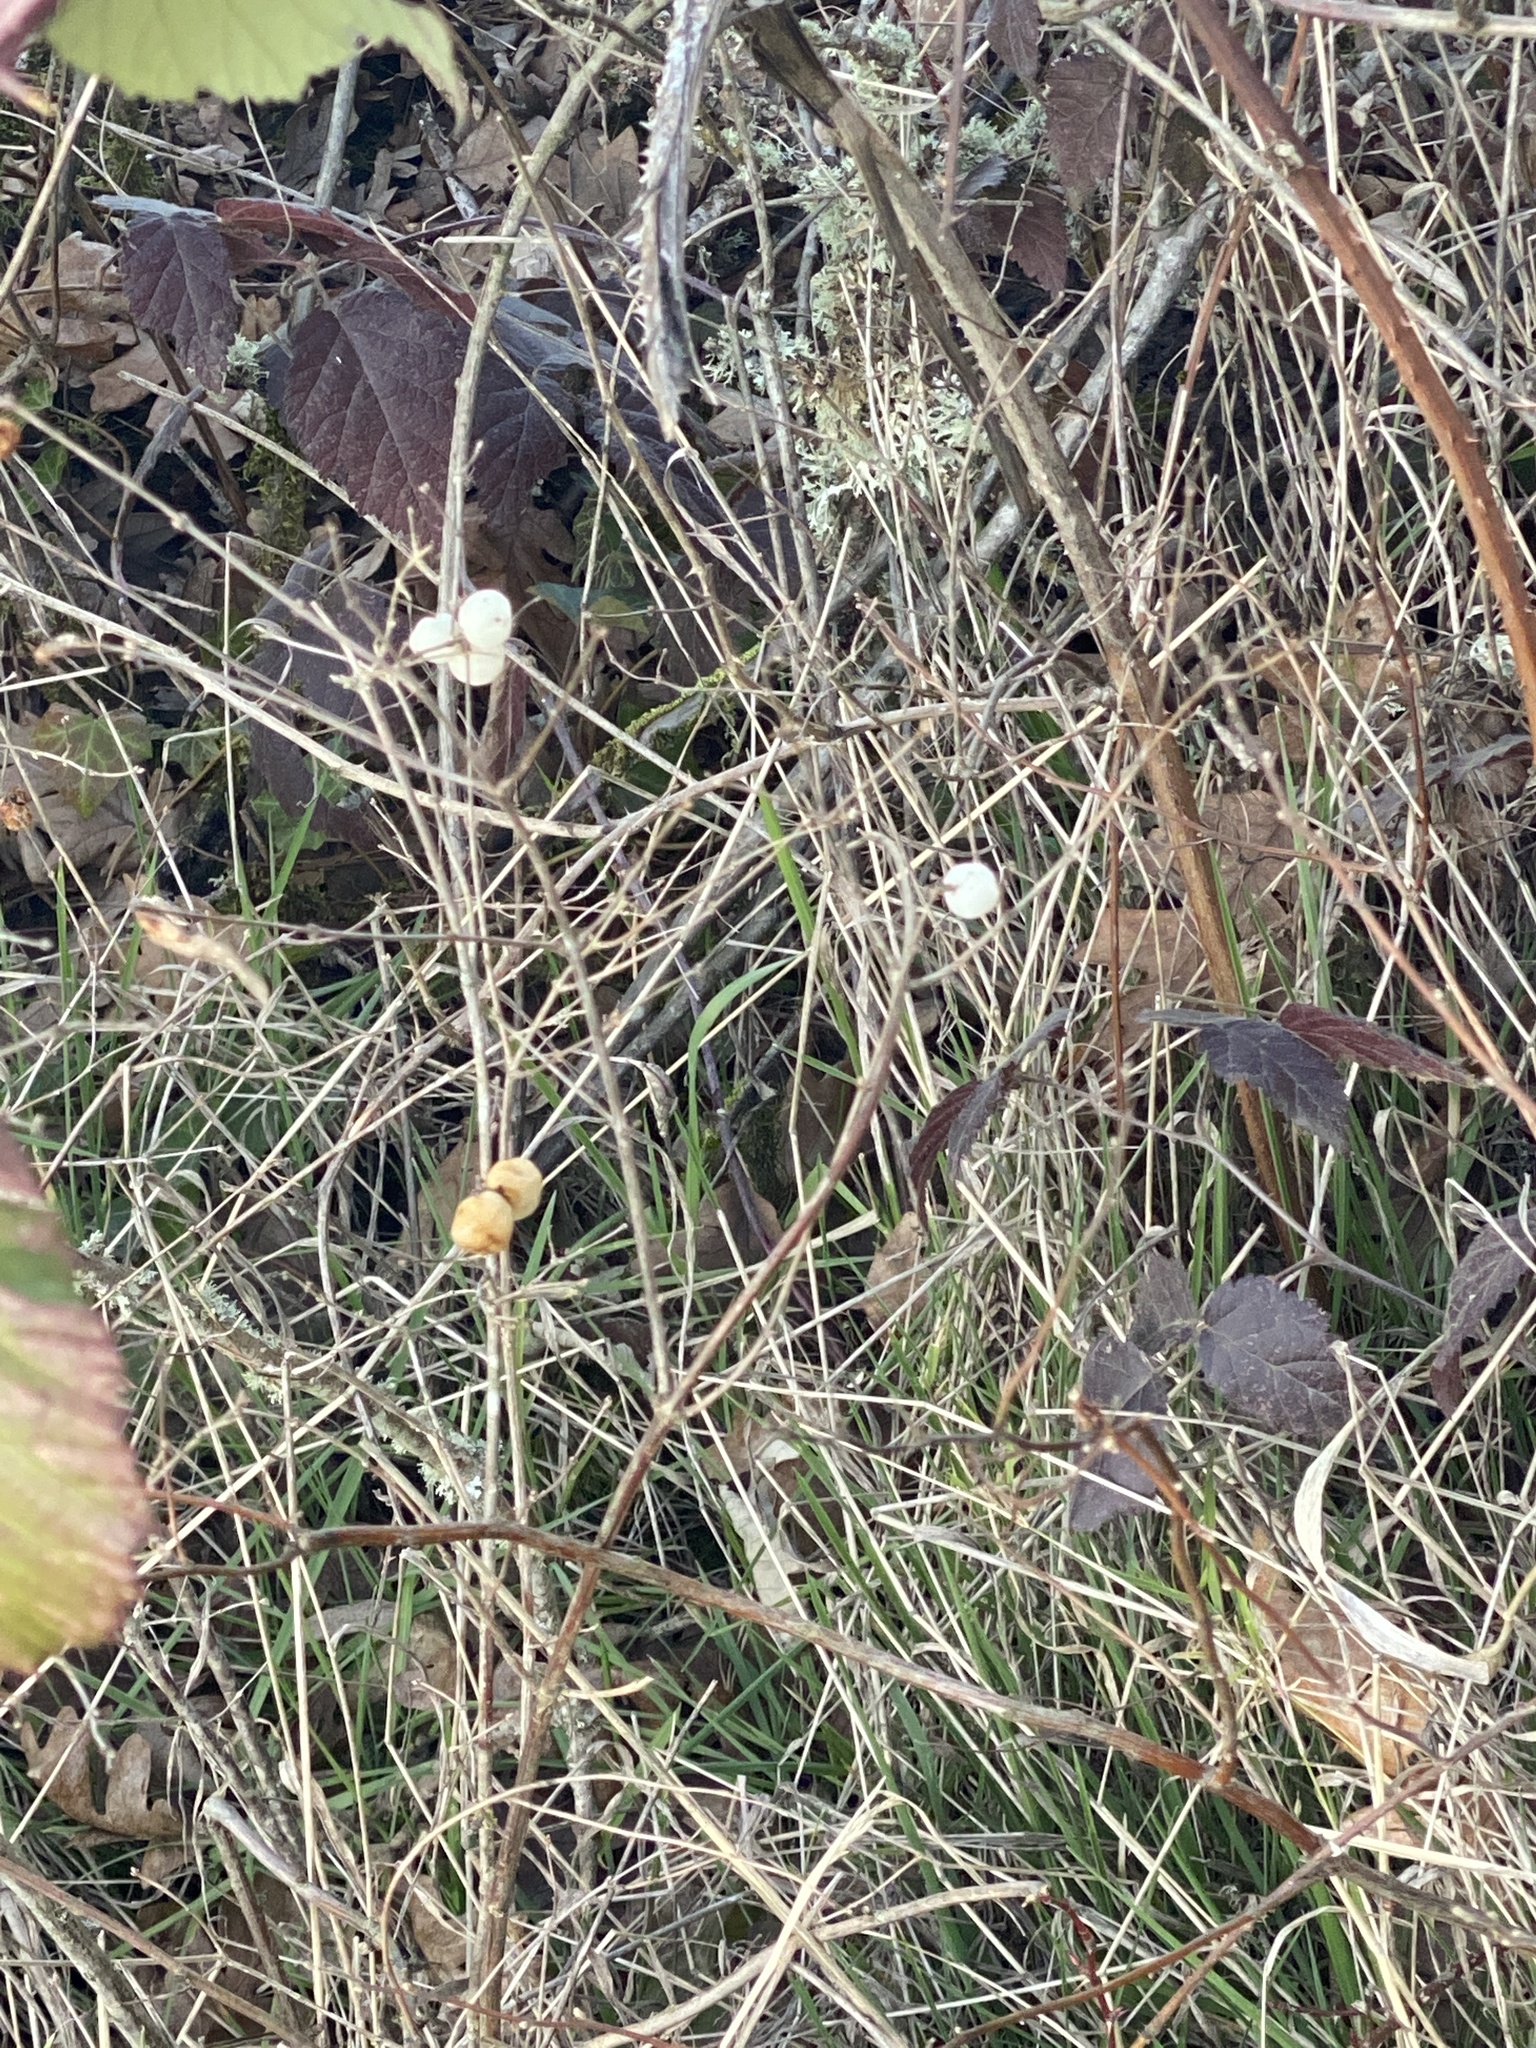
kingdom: Plantae
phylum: Tracheophyta
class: Magnoliopsida
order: Dipsacales
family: Caprifoliaceae
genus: Symphoricarpos
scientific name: Symphoricarpos albus
